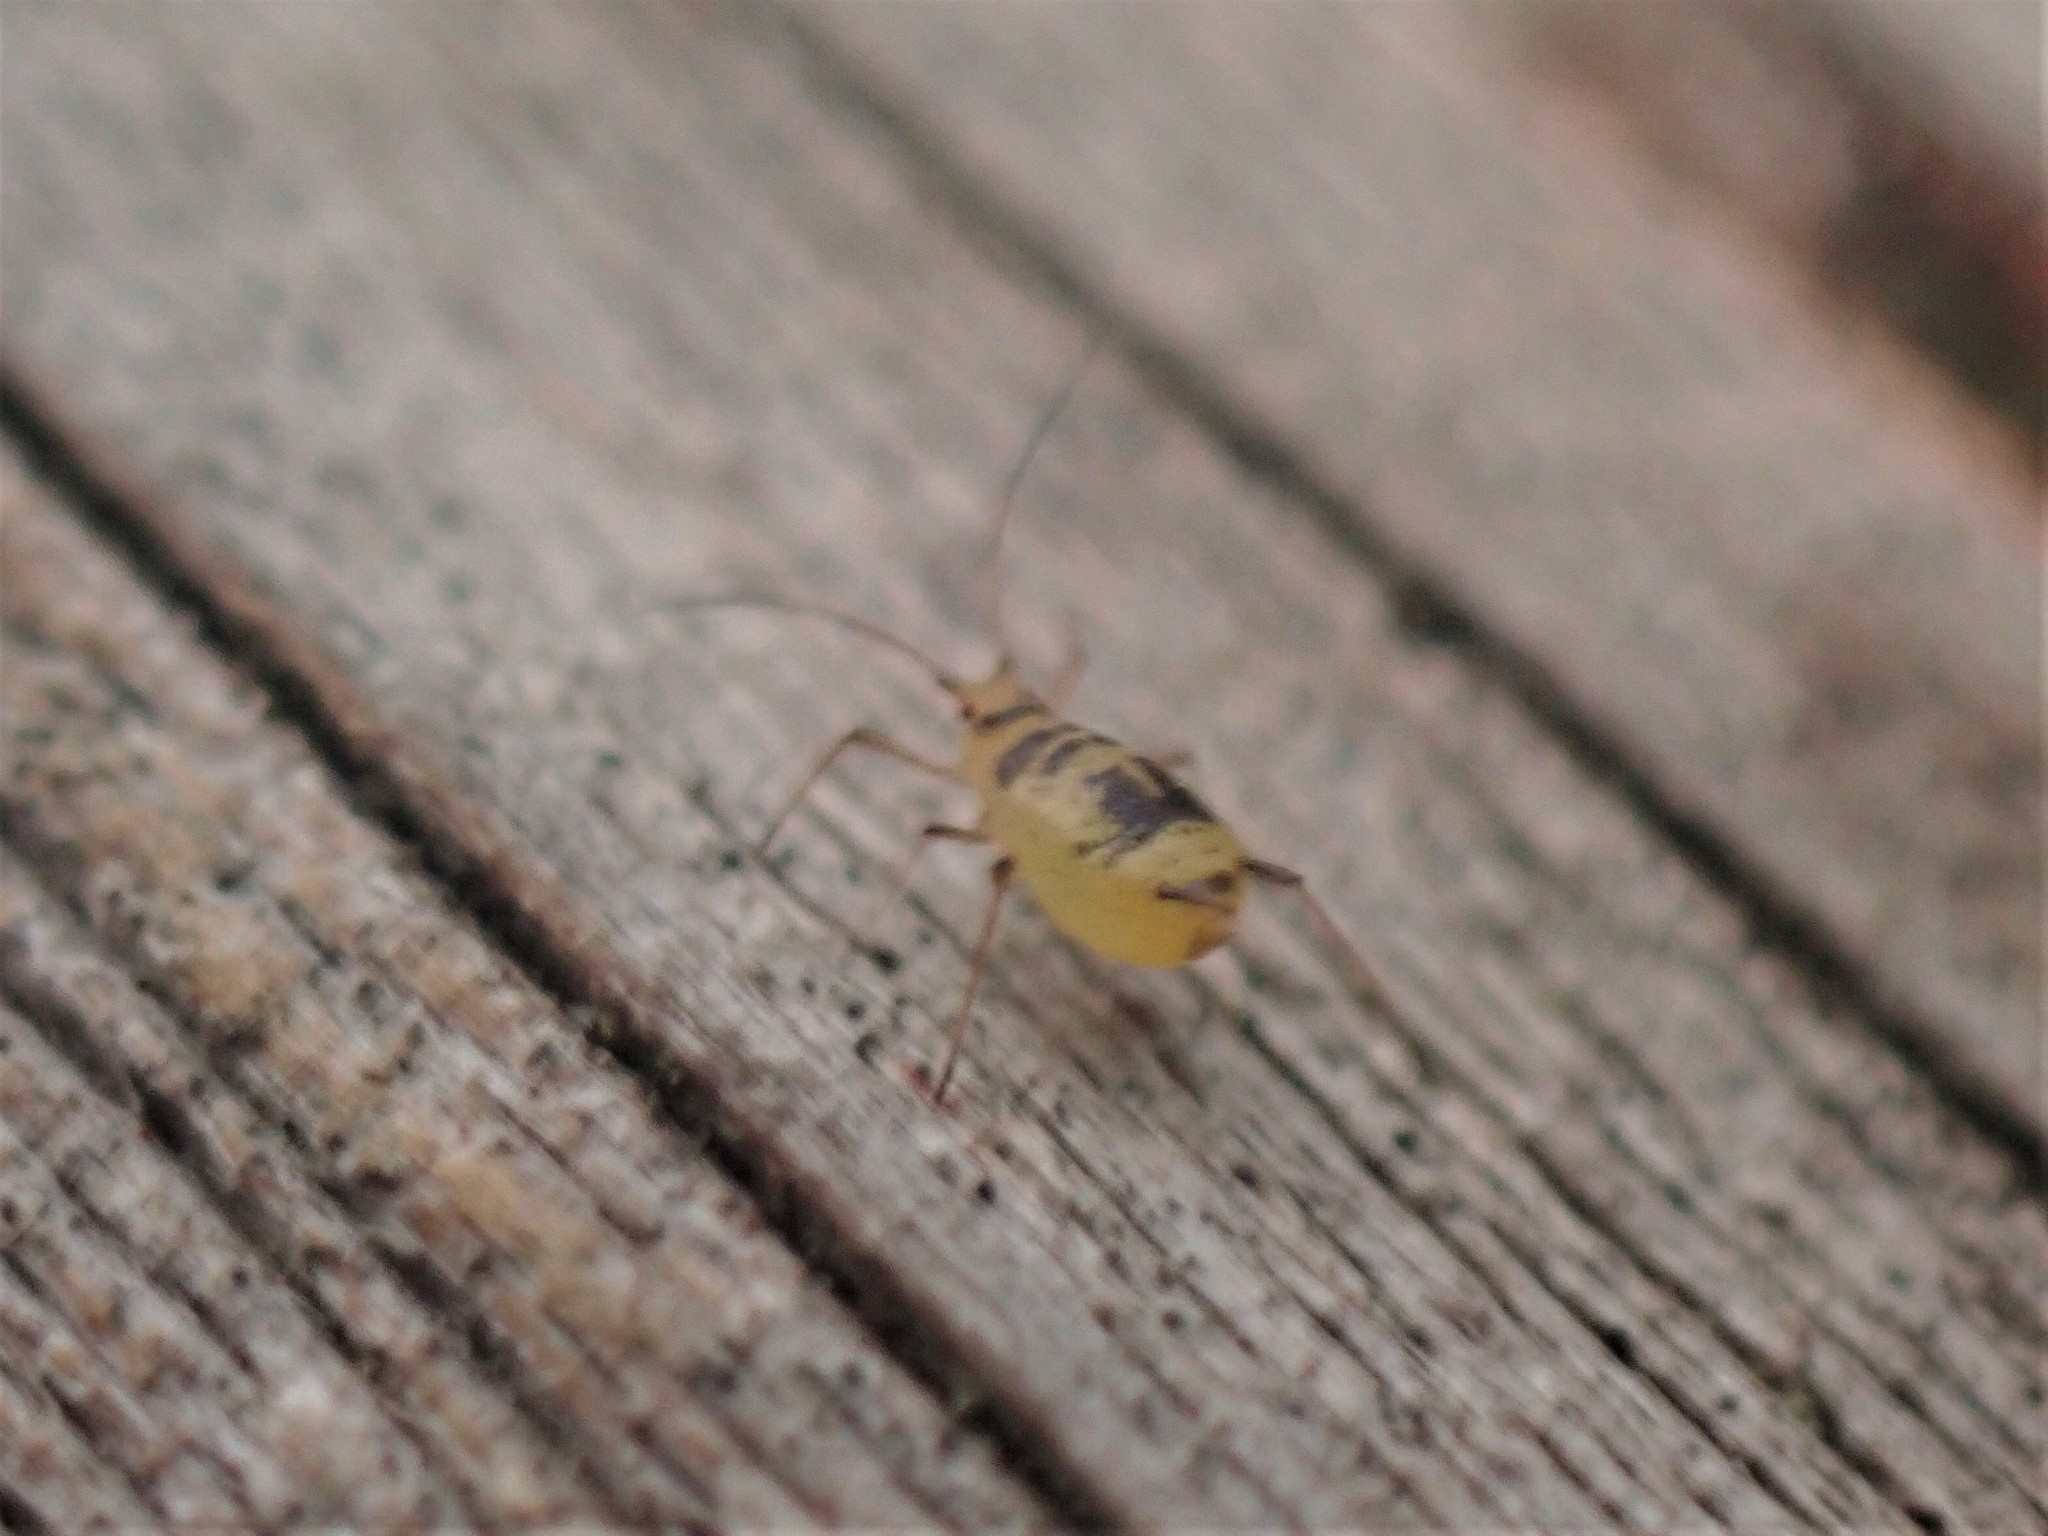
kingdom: Animalia
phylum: Arthropoda
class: Insecta
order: Hemiptera
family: Aphididae
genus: Neomyzus
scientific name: Neomyzus circumflexus
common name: Crescentmarked lily aphid
